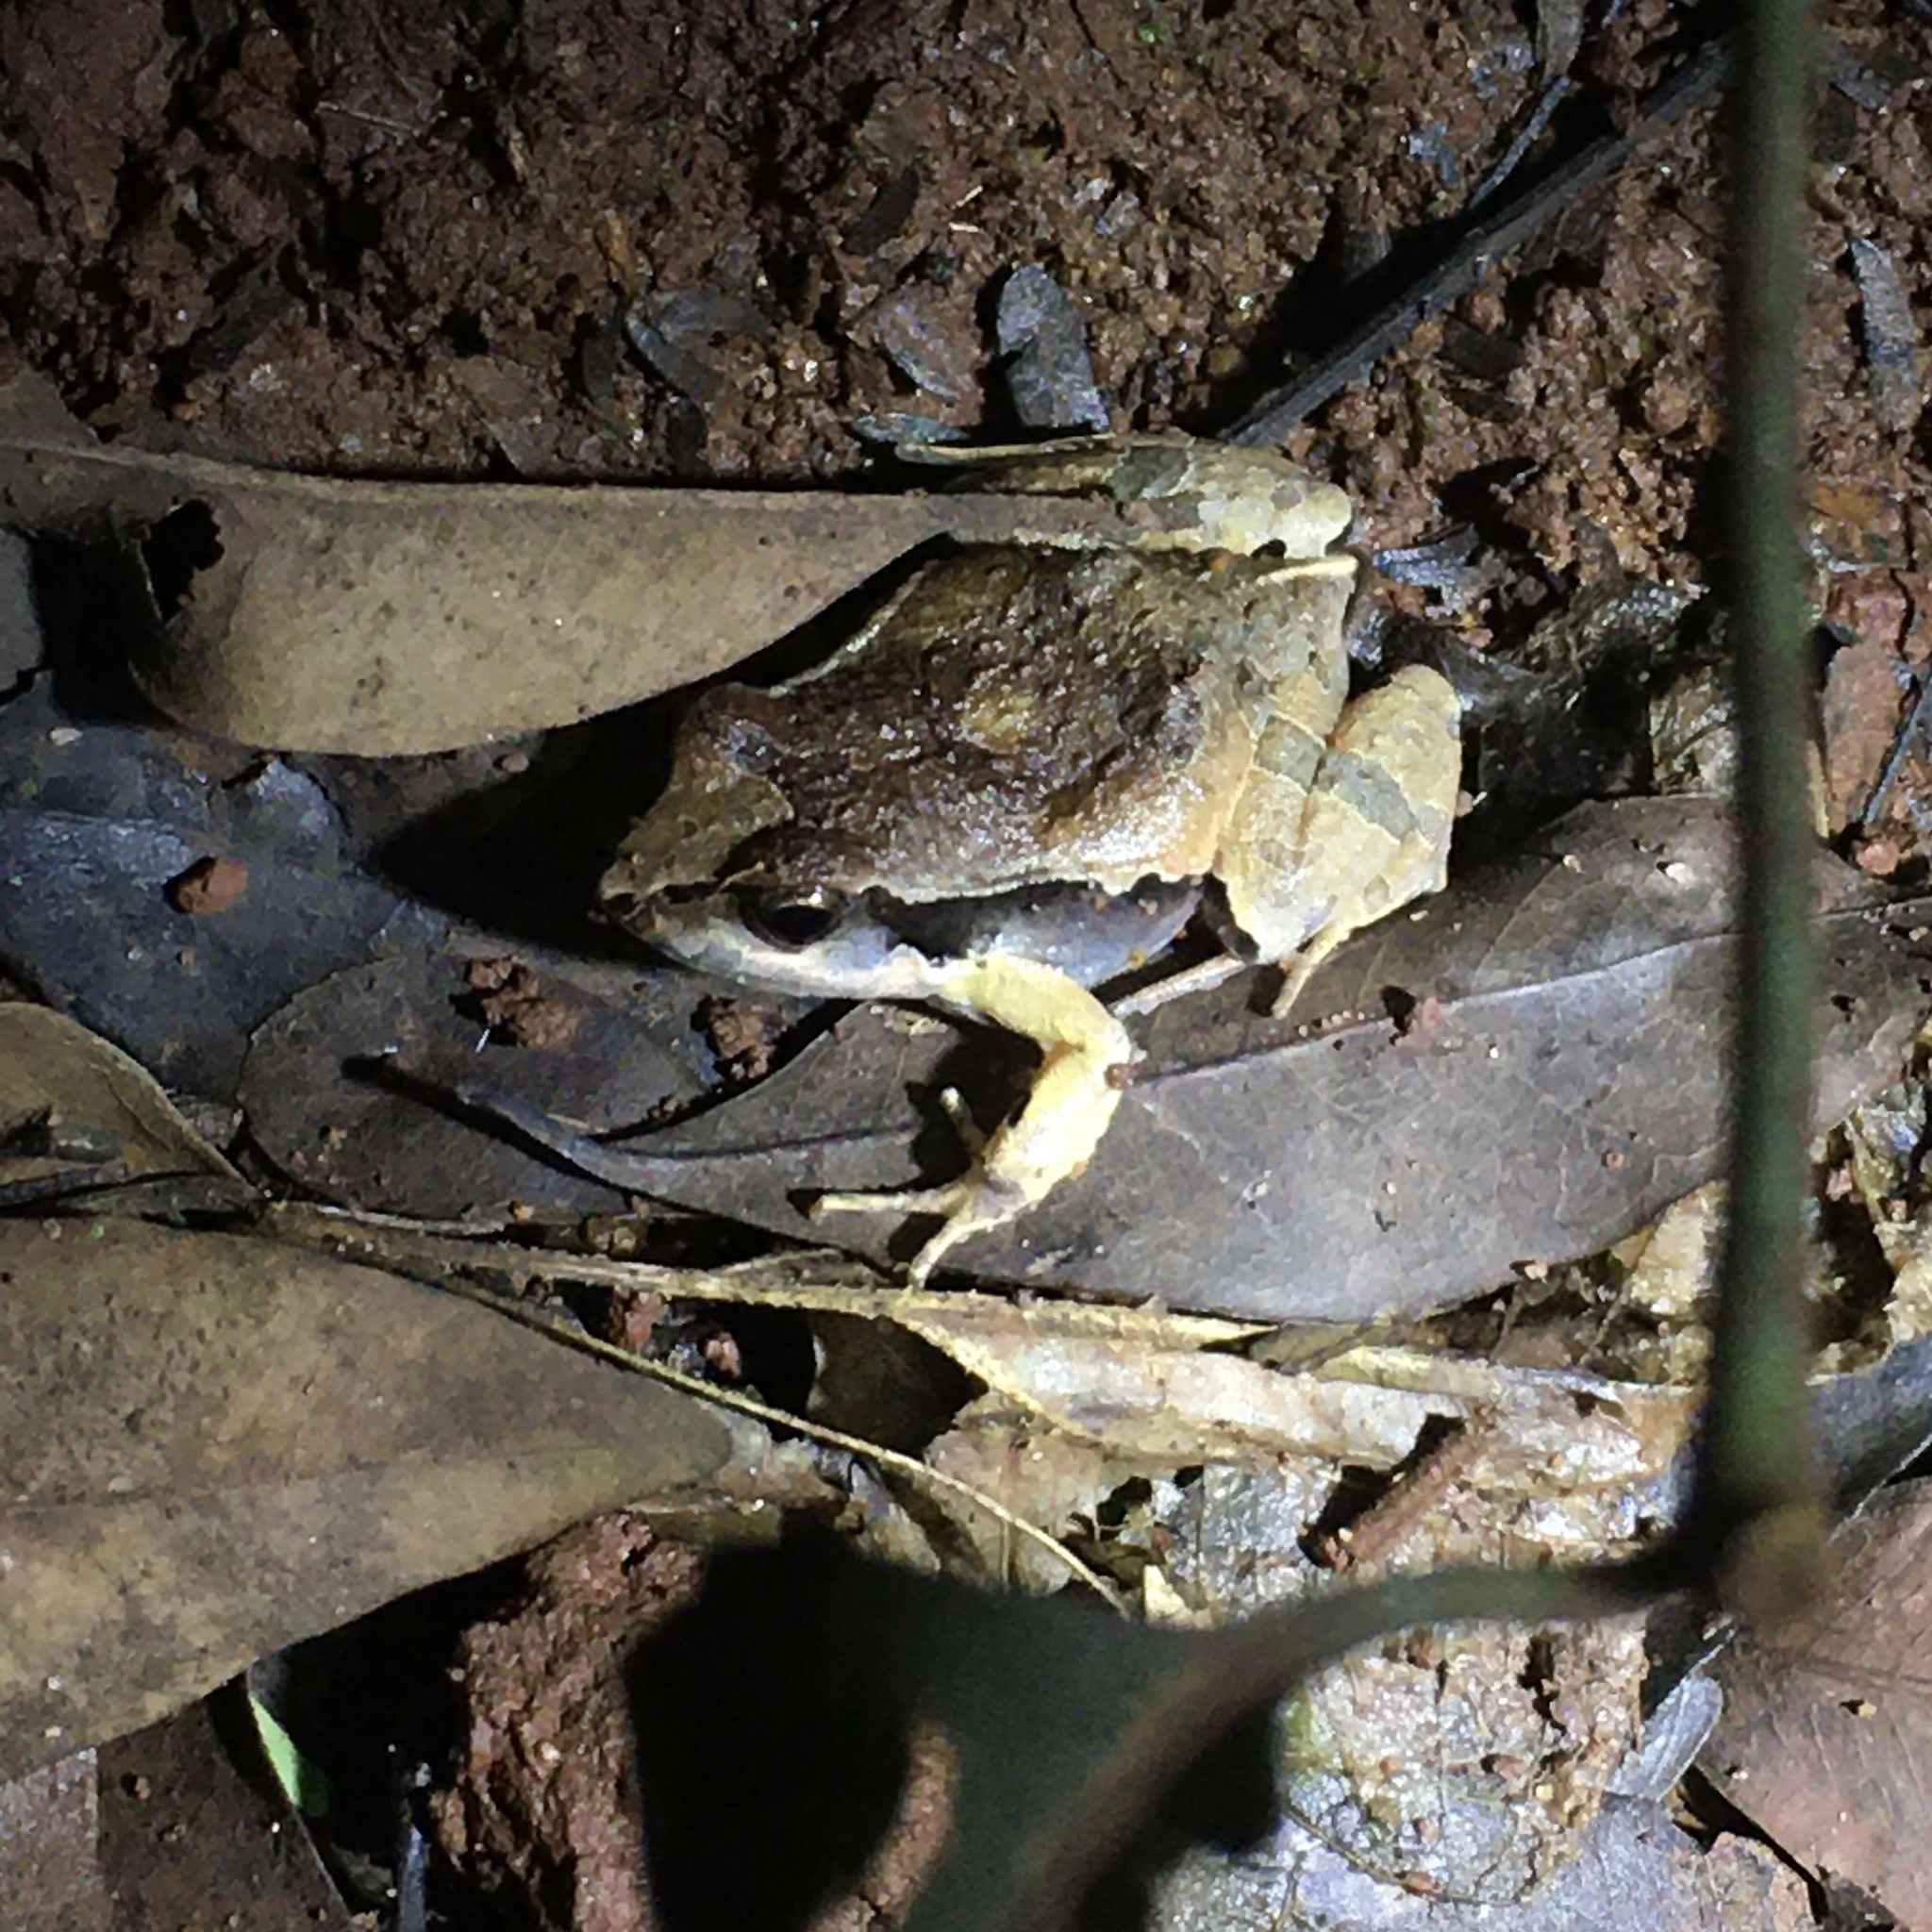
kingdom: Animalia
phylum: Chordata
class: Amphibia
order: Anura
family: Leptodactylidae
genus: Physalaemus
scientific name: Physalaemus cuvieri
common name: Barker frog
